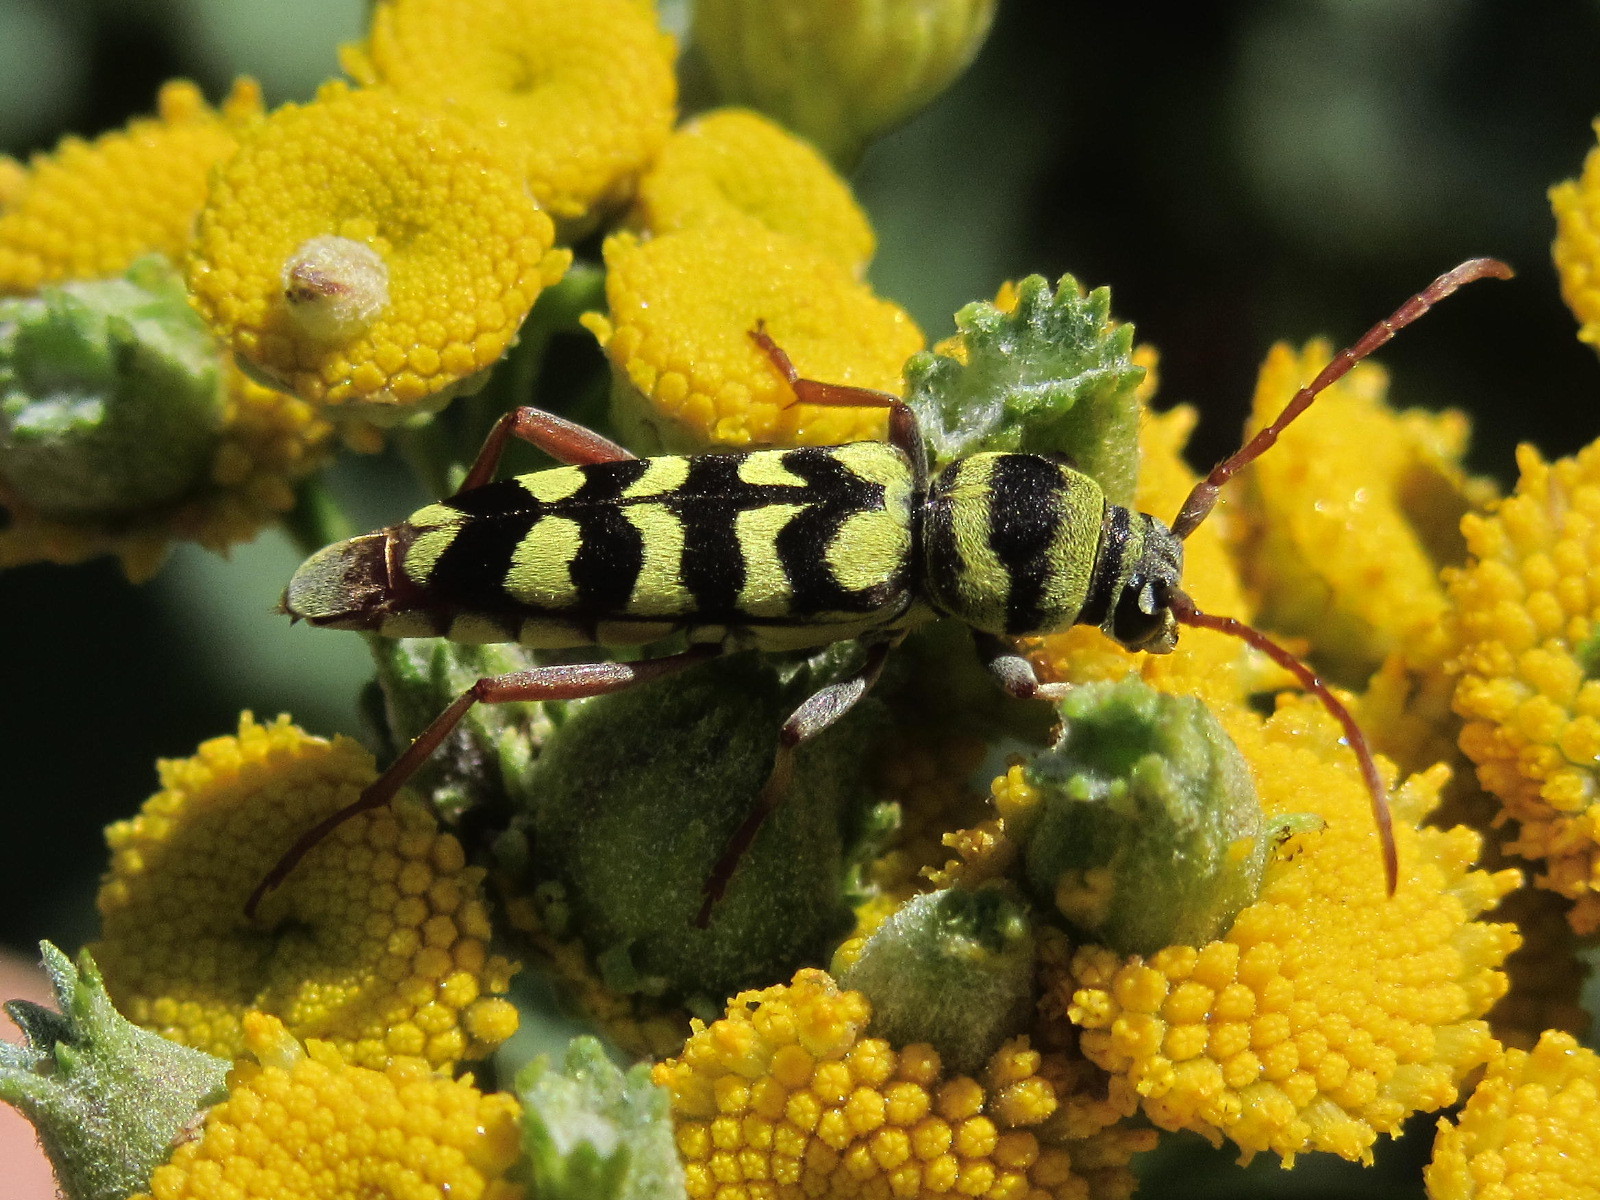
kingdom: Animalia
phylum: Arthropoda
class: Insecta
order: Coleoptera
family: Cerambycidae
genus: Plagionotus
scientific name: Plagionotus floralis
